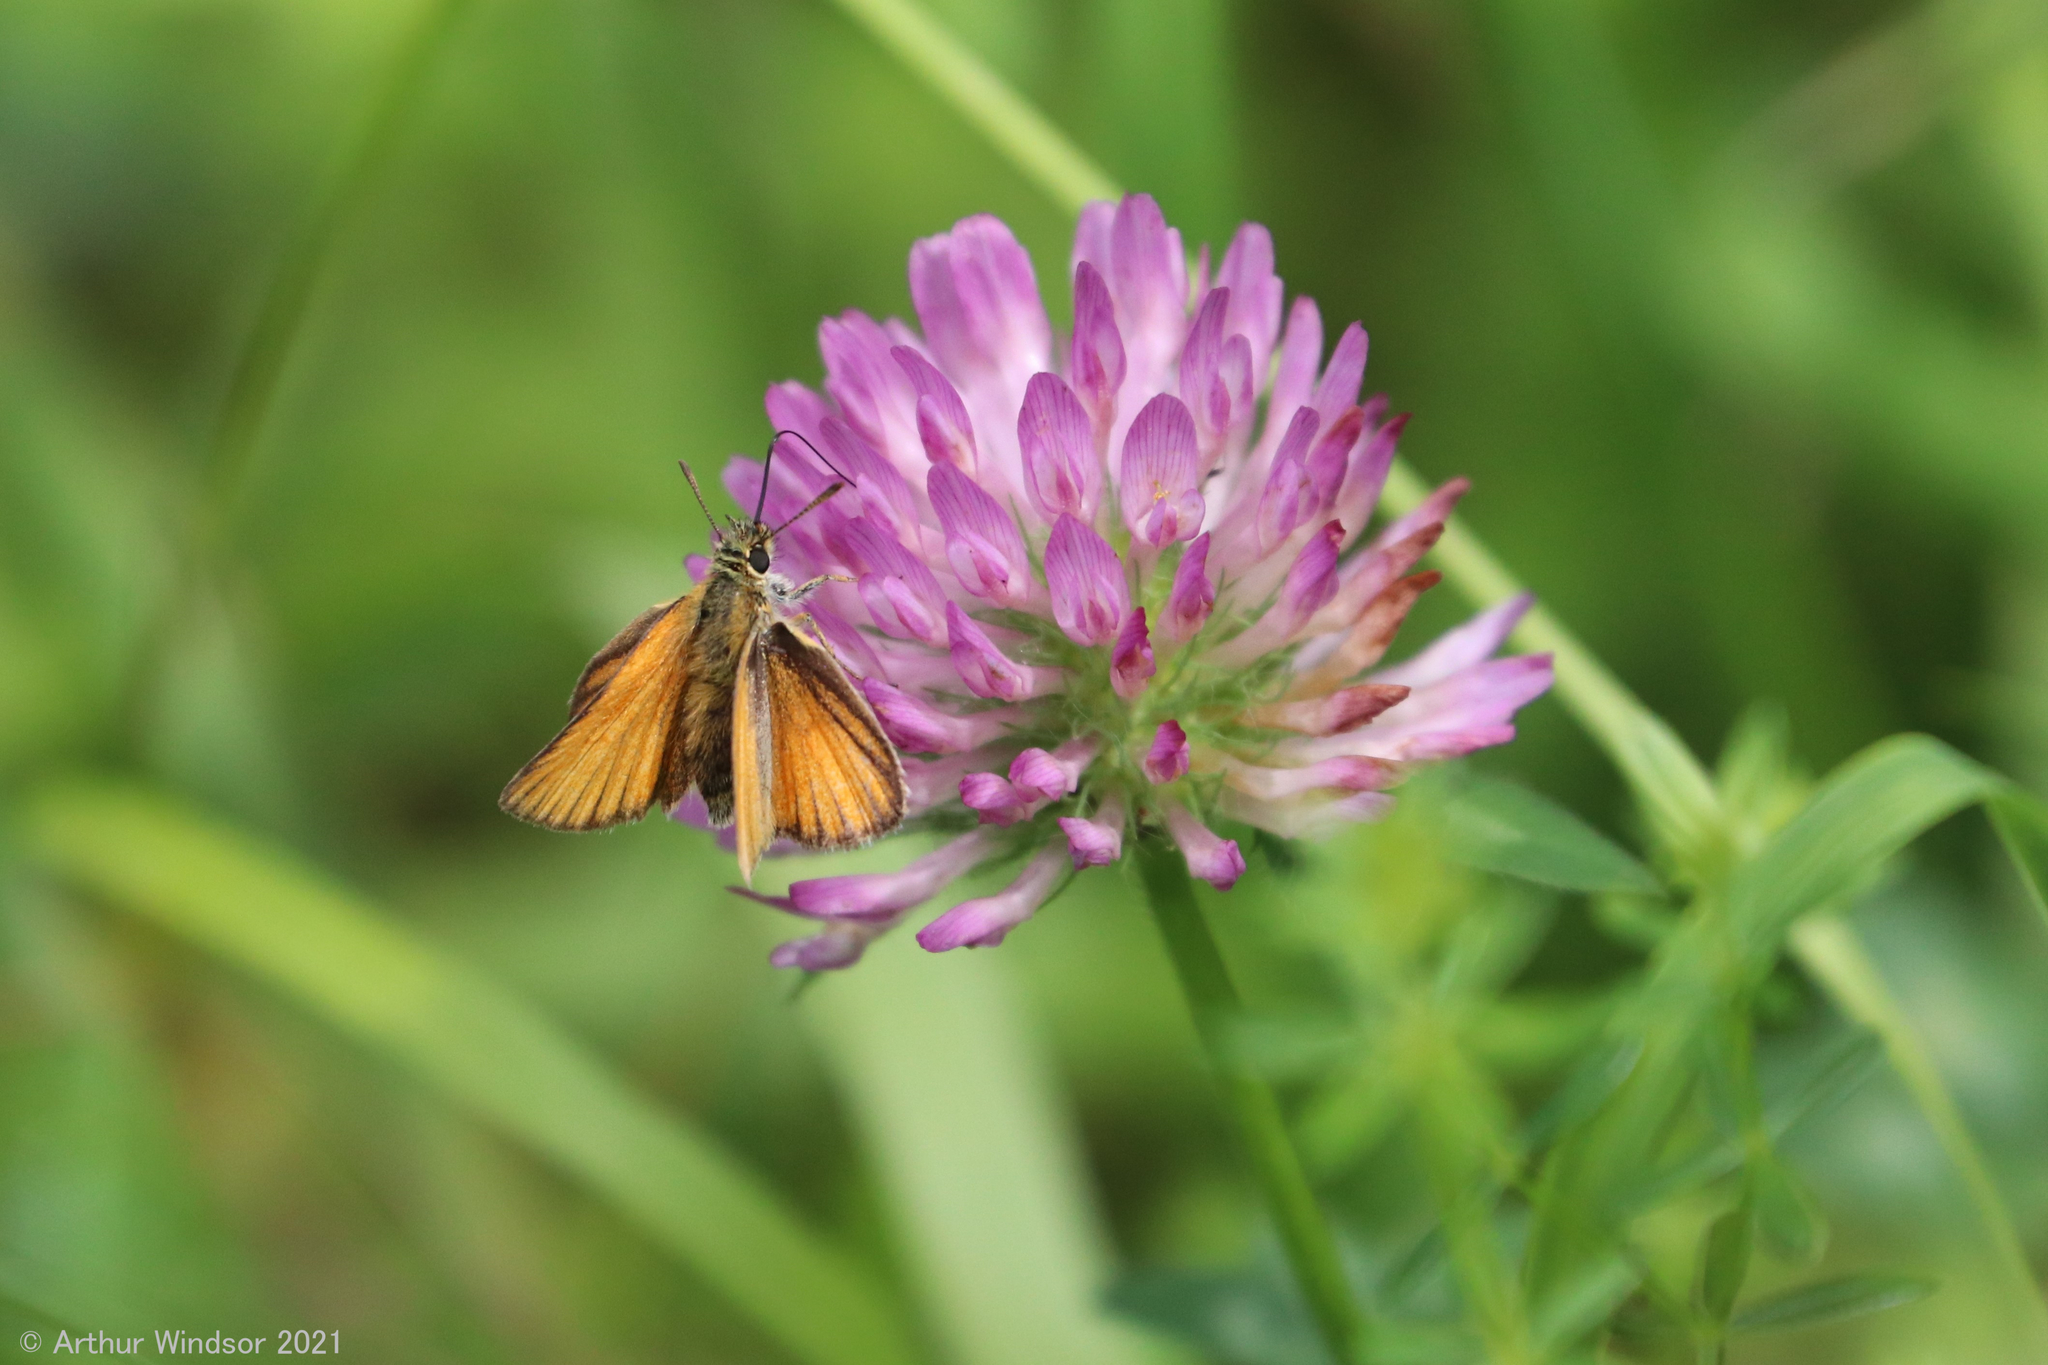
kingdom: Animalia
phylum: Arthropoda
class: Insecta
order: Lepidoptera
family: Hesperiidae
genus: Thymelicus
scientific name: Thymelicus lineola
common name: Essex skipper
